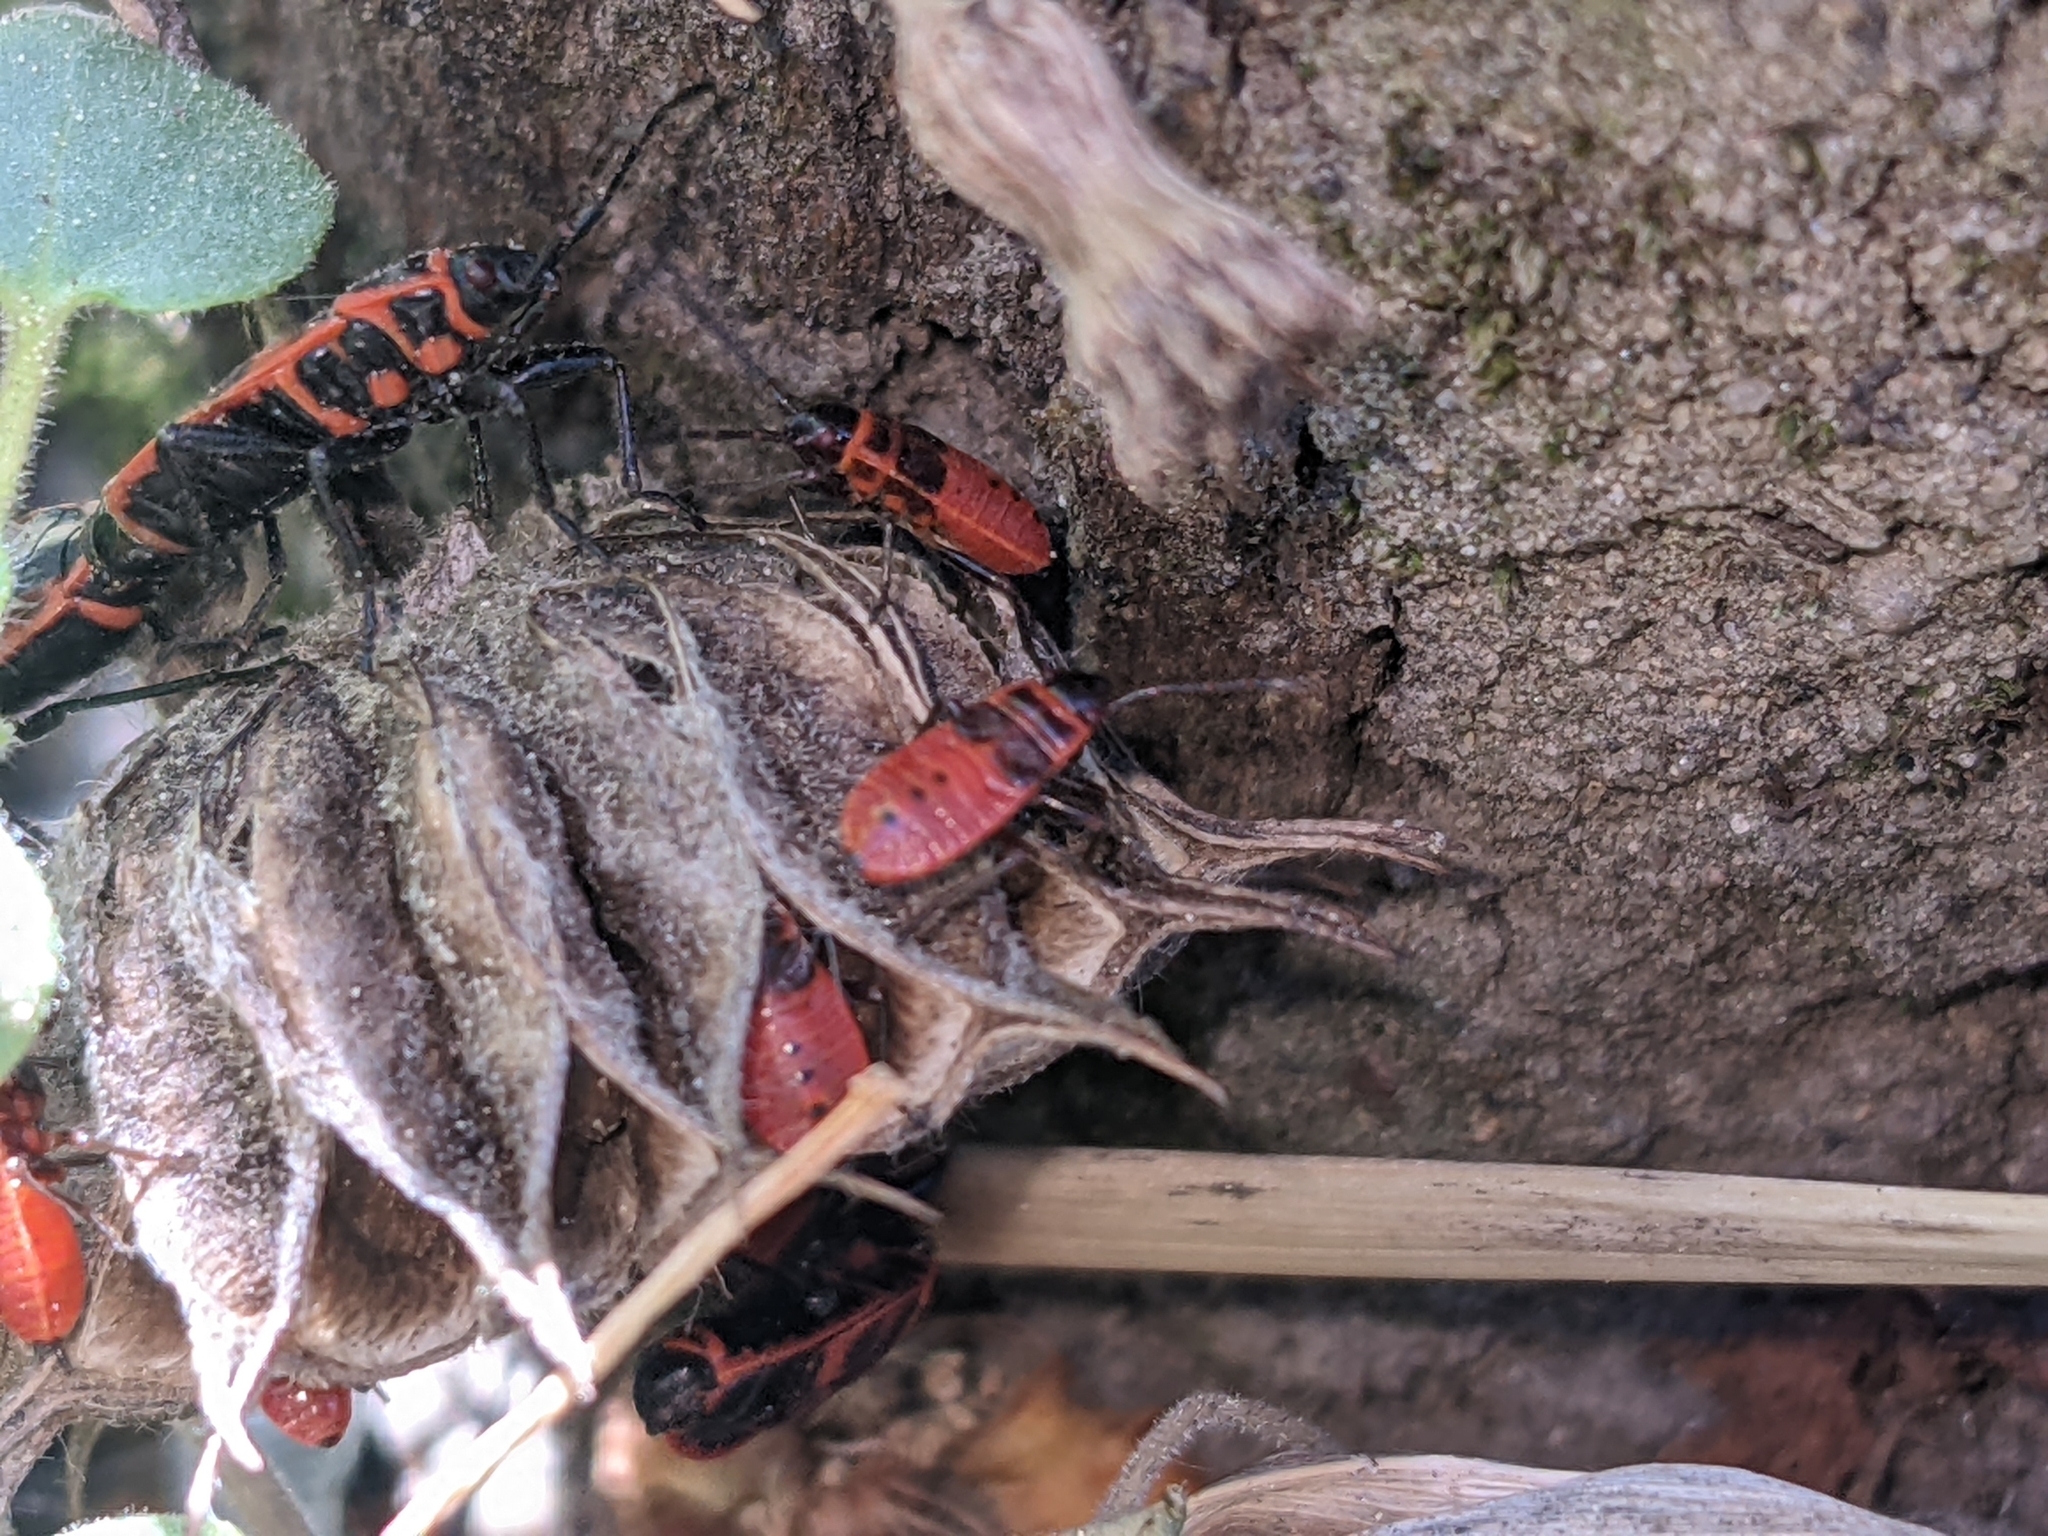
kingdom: Animalia
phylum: Arthropoda
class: Insecta
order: Hemiptera
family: Pyrrhocoridae
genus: Pyrrhocoris
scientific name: Pyrrhocoris apterus
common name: Firebug
